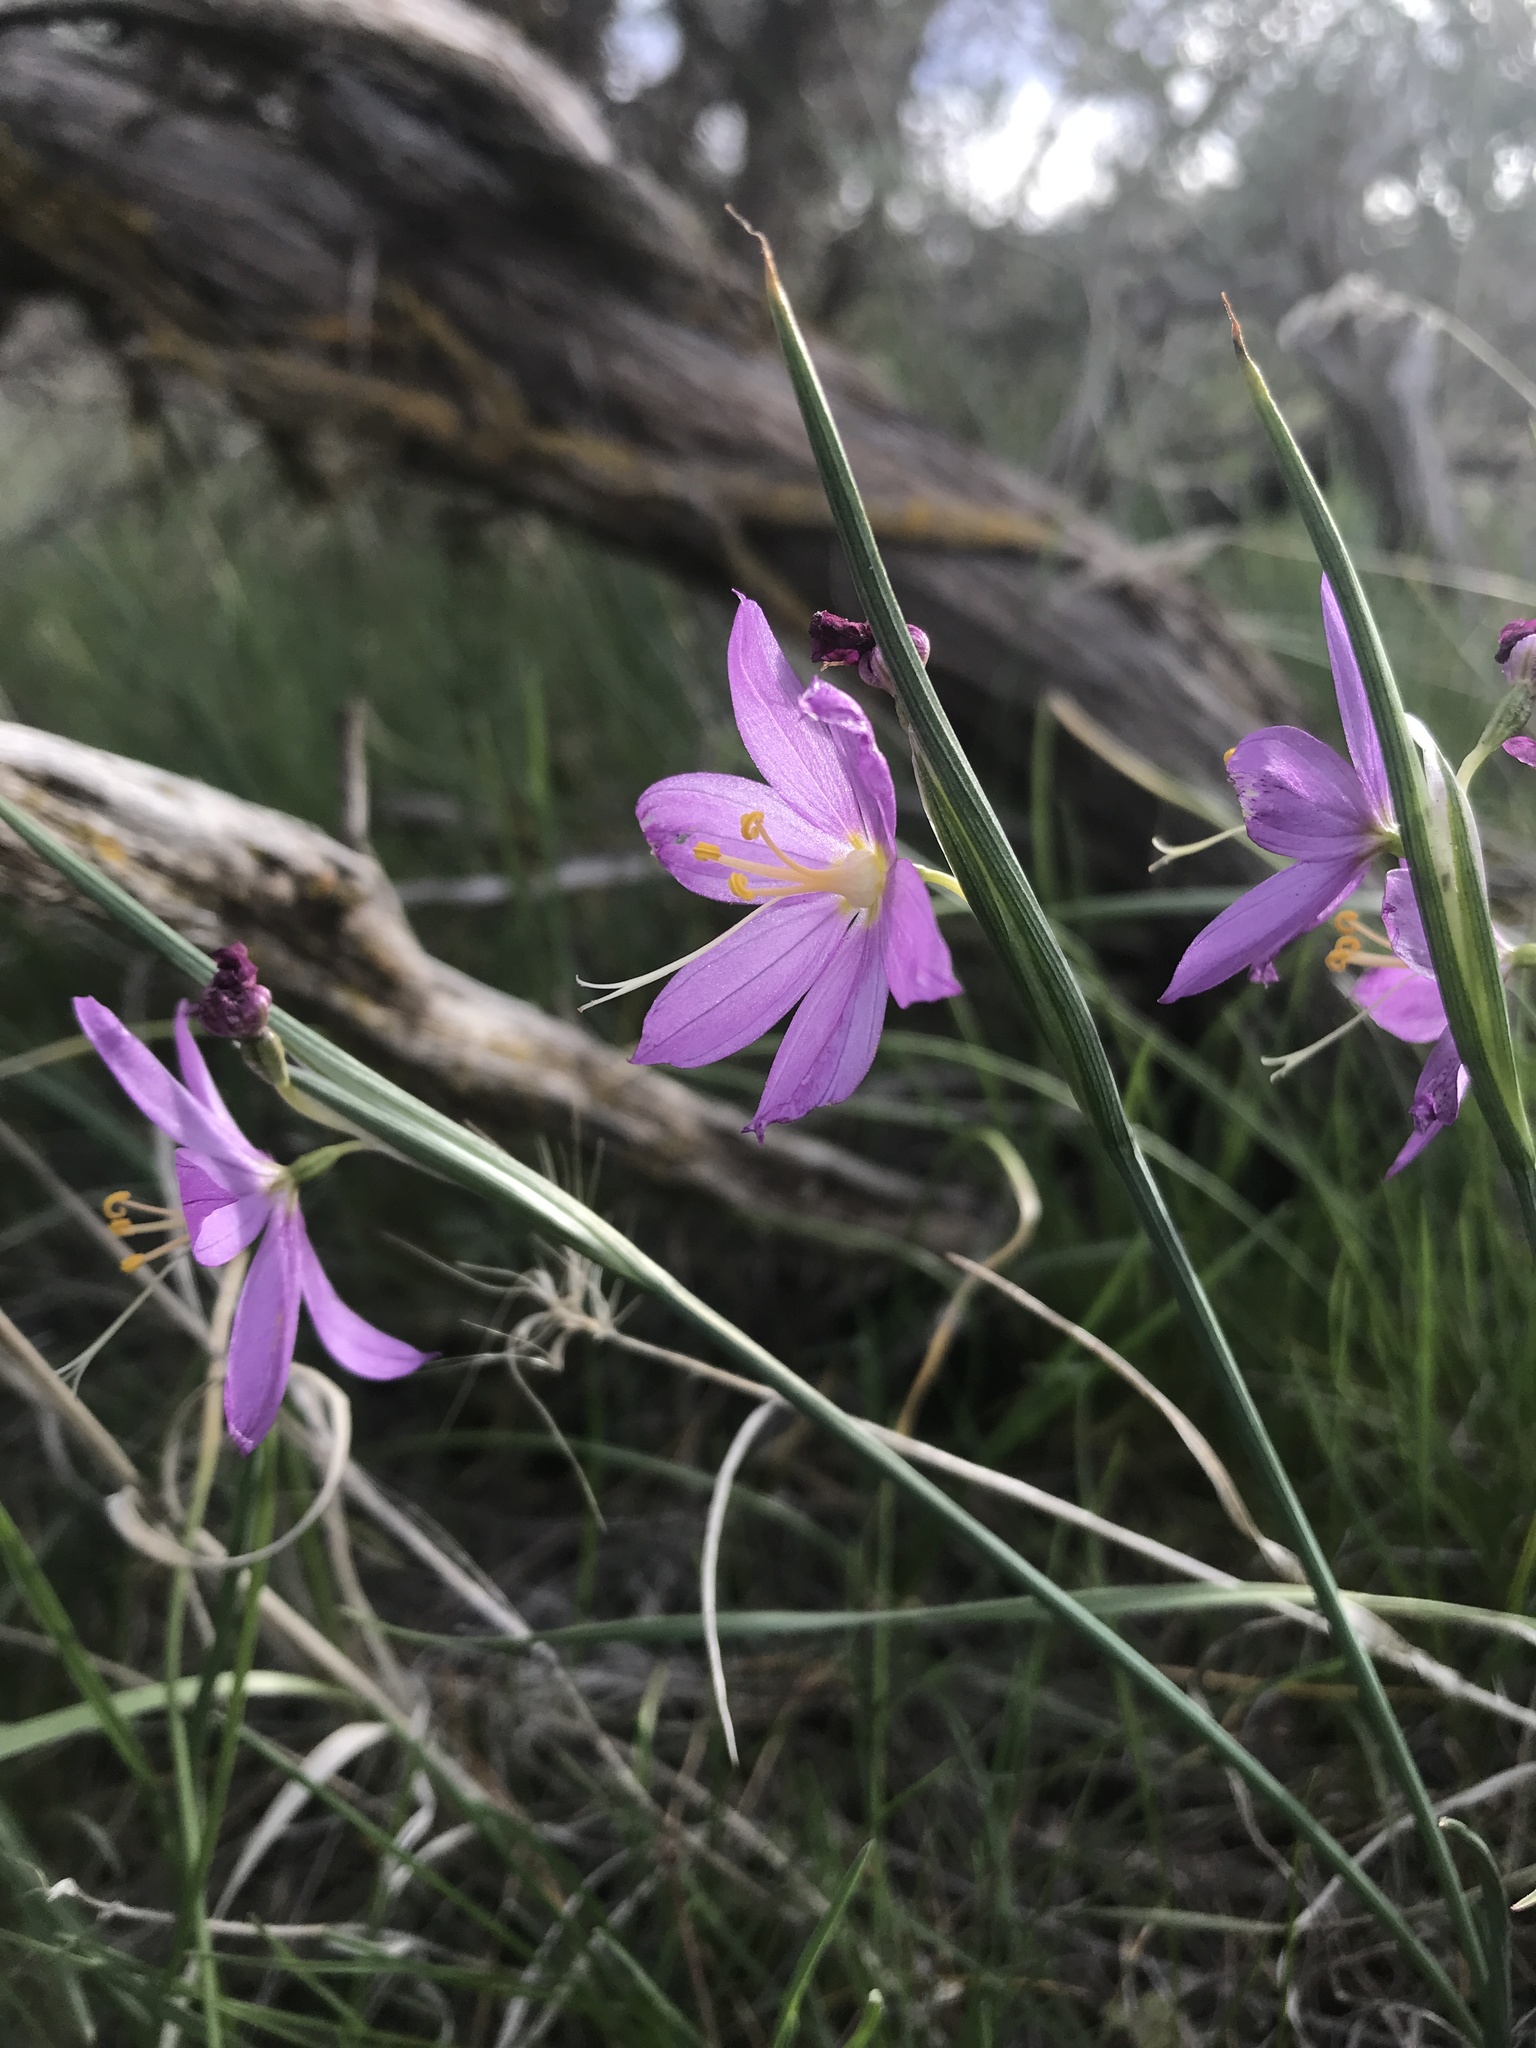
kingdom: Plantae
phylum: Tracheophyta
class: Liliopsida
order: Asparagales
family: Iridaceae
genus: Olsynium
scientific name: Olsynium douglasii
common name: Douglas' grasswidow
